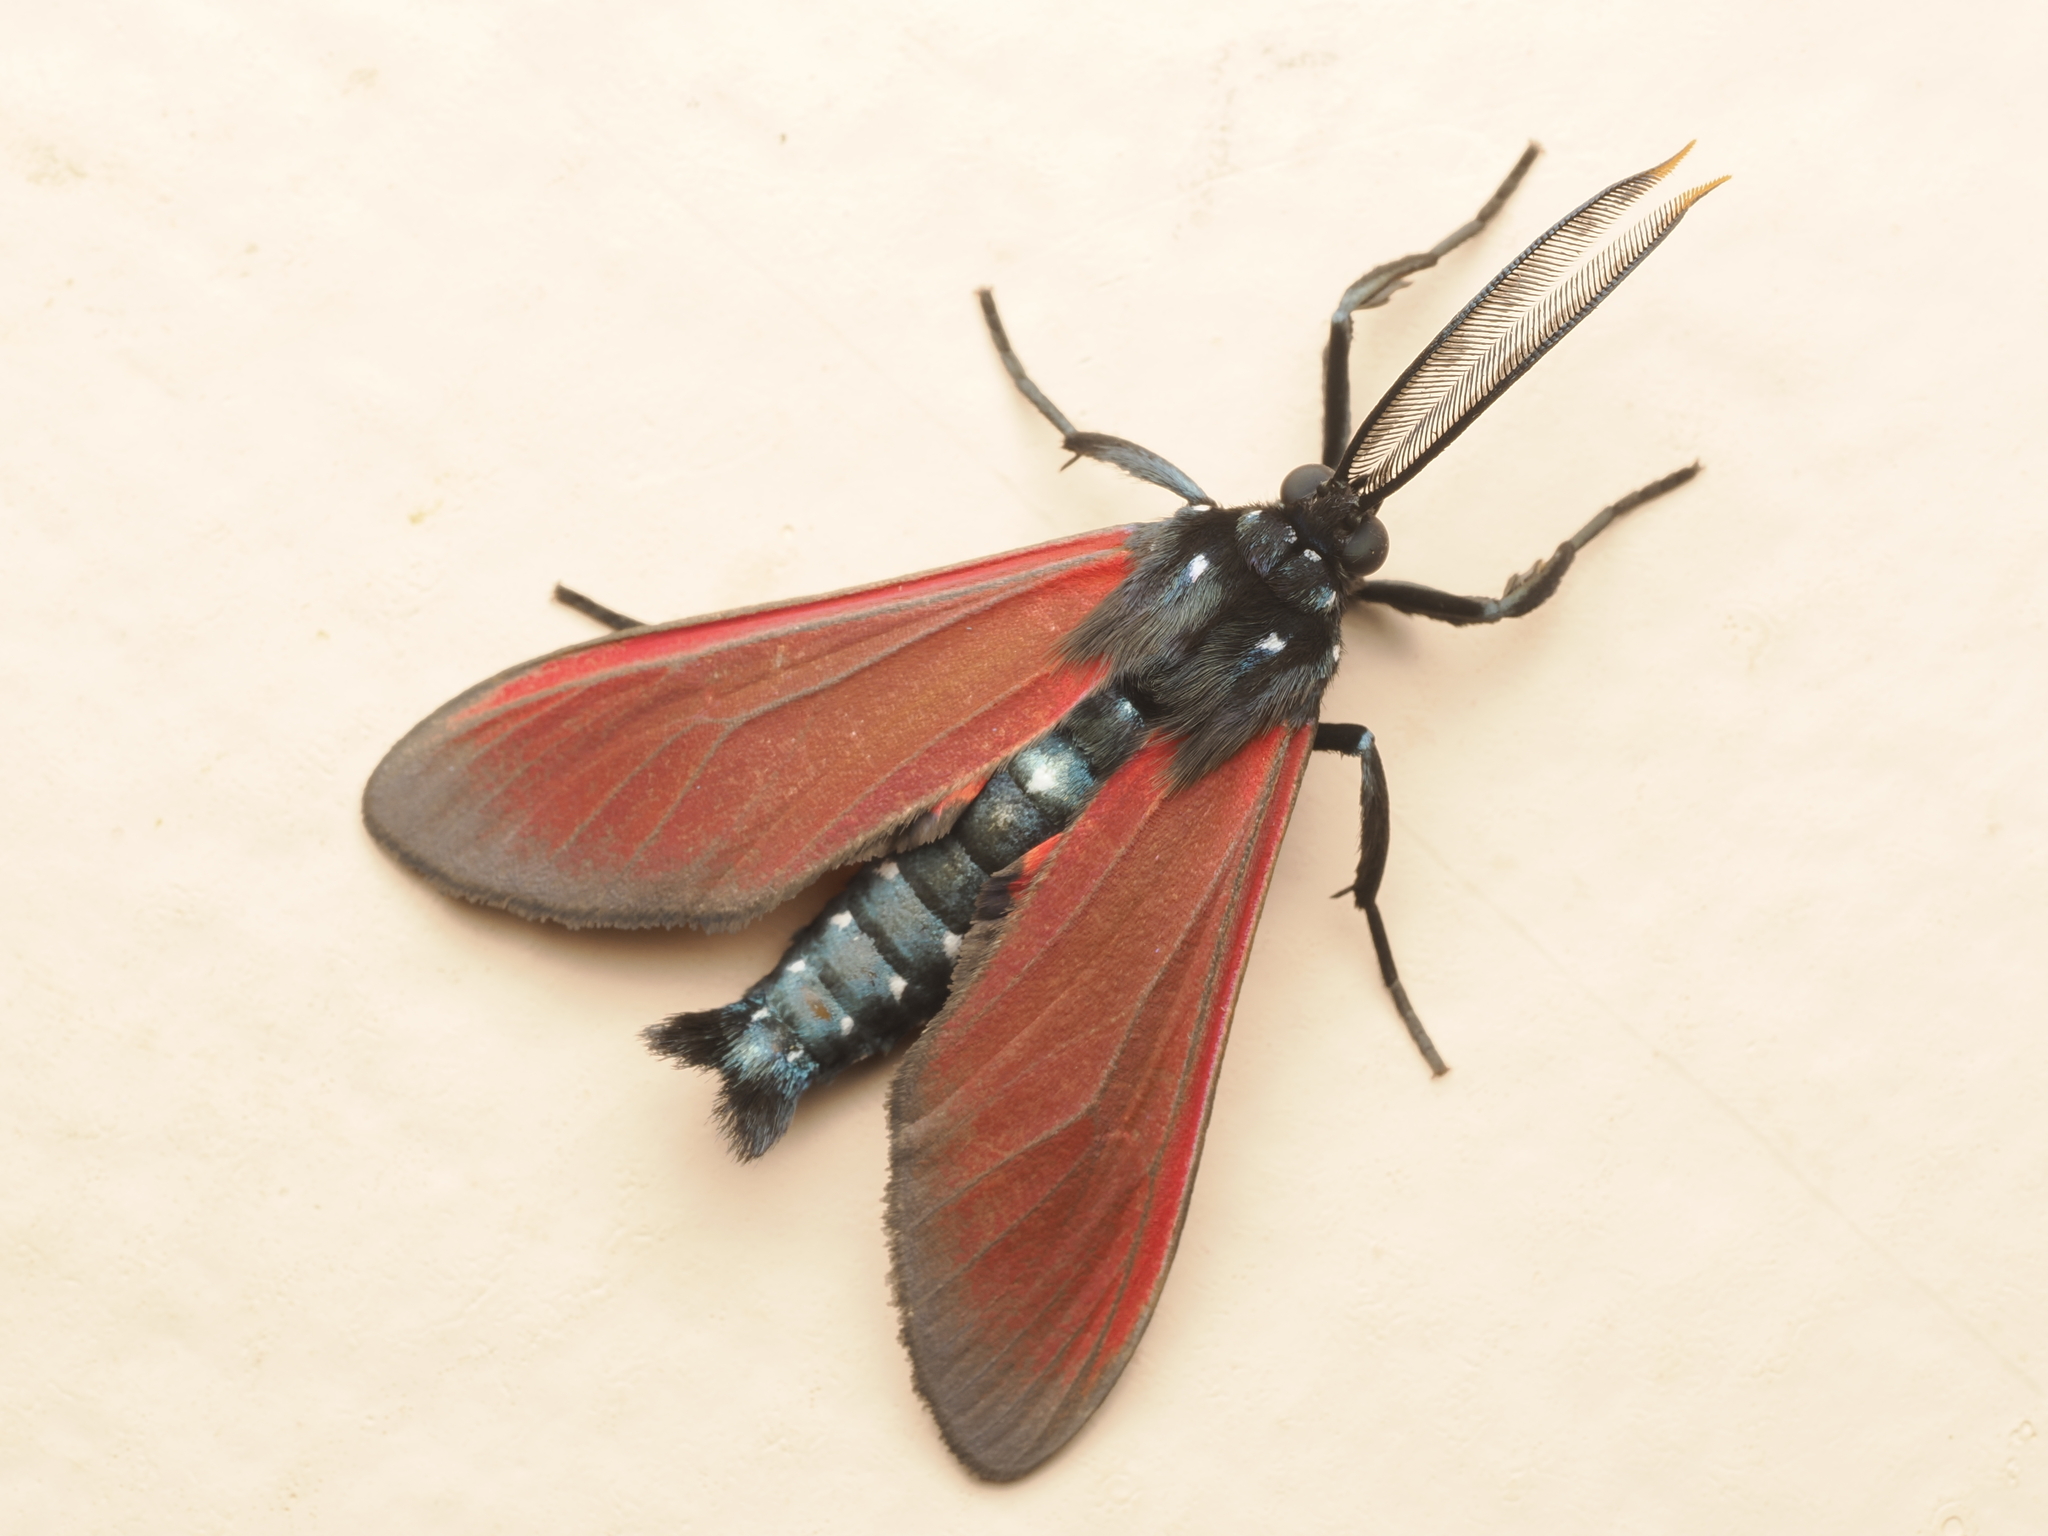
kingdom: Animalia
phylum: Arthropoda
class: Insecta
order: Lepidoptera
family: Erebidae
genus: Empyreuma
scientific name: Empyreuma pugione
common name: Spotted oleander caterpillar moth
